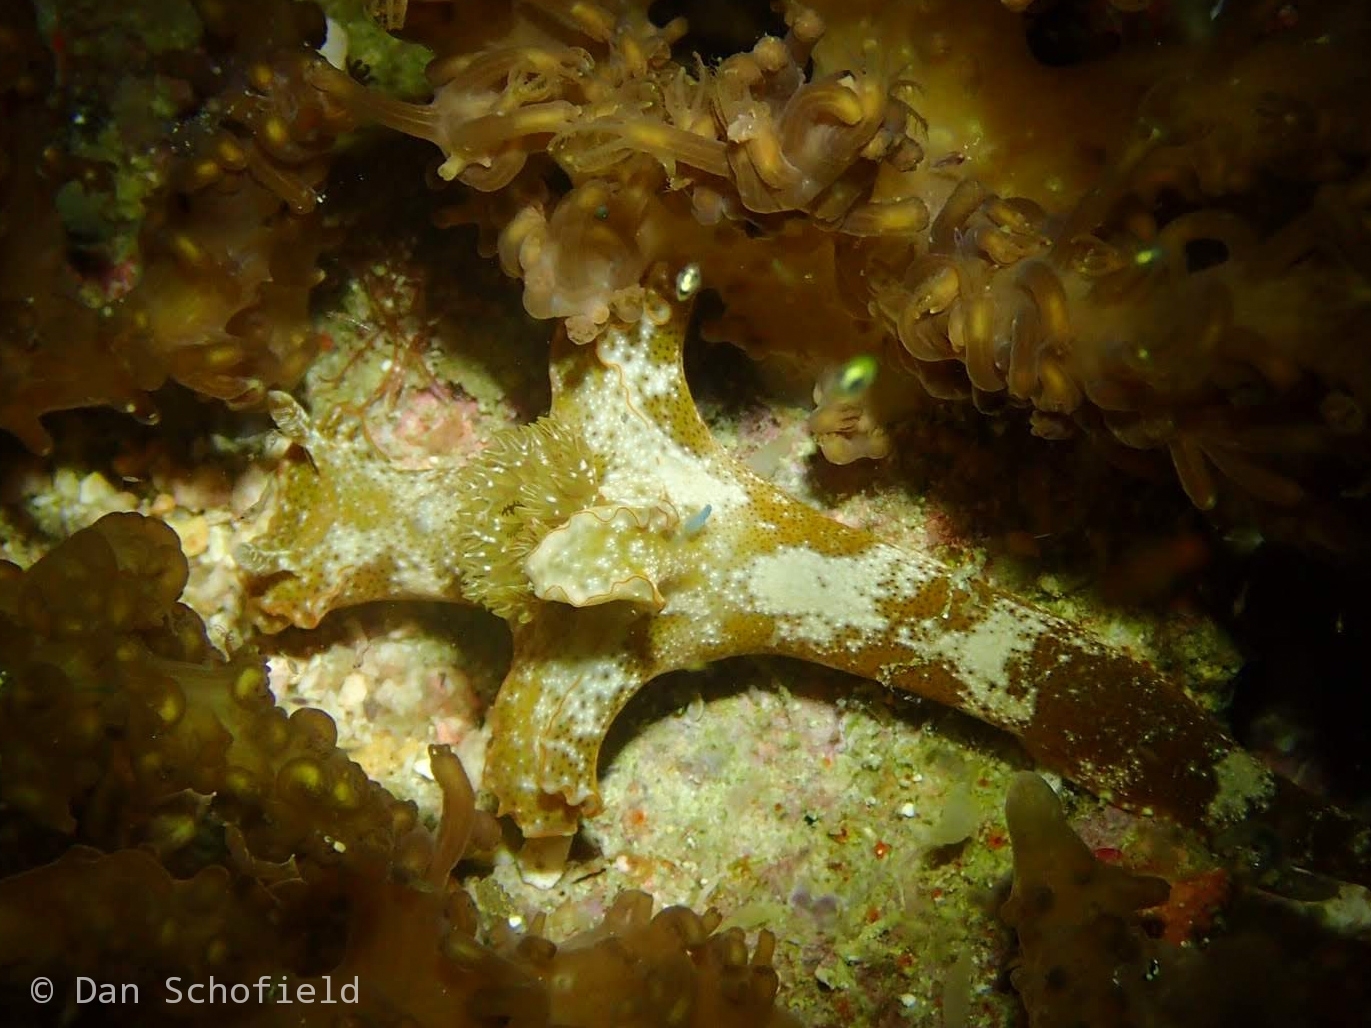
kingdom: Animalia
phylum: Mollusca
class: Gastropoda
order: Nudibranchia
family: Chromodorididae
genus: Ceratosoma
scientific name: Ceratosoma gracillimum
